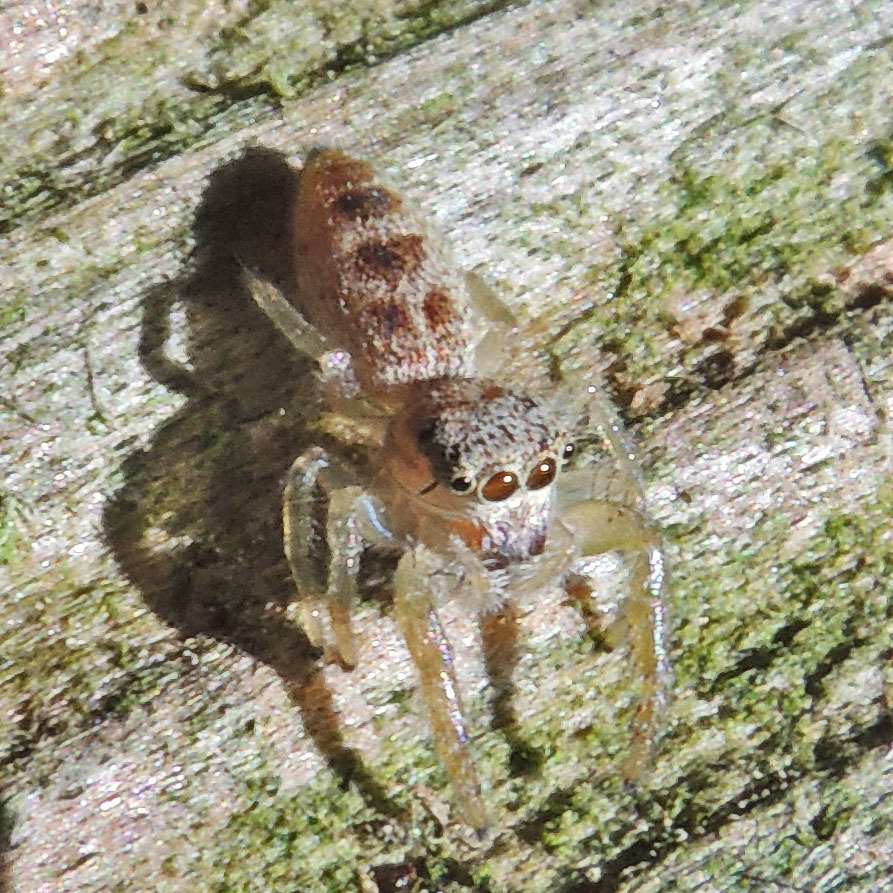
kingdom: Animalia
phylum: Arthropoda
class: Arachnida
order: Araneae
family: Salticidae
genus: Hentzia
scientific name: Hentzia mitrata
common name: White-jawed jumping spider
